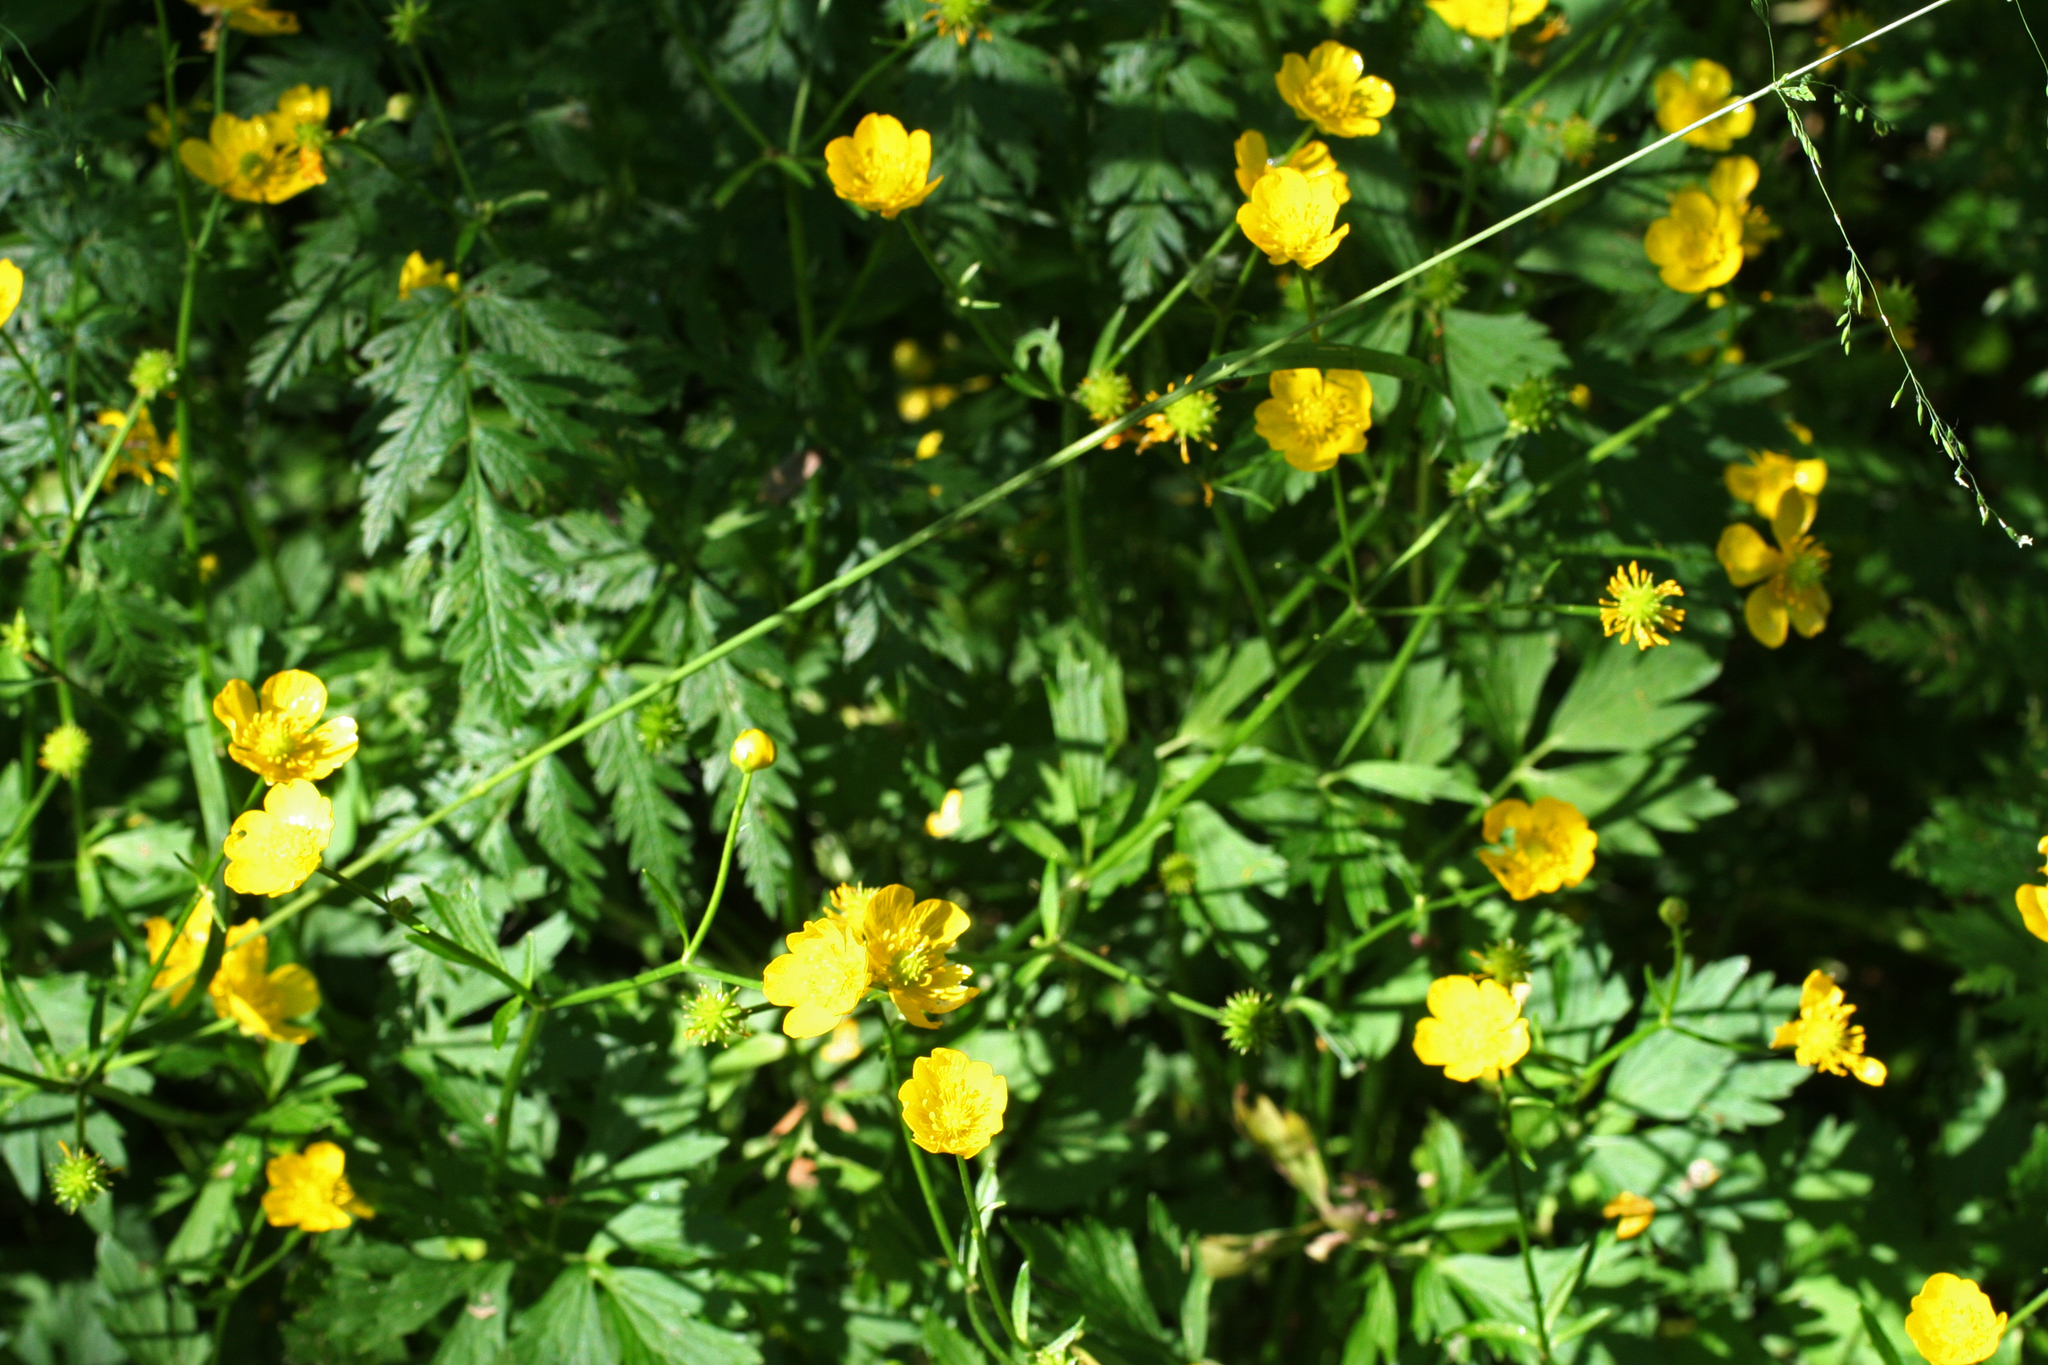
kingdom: Plantae
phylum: Tracheophyta
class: Magnoliopsida
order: Ranunculales
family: Ranunculaceae
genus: Ranunculus
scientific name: Ranunculus repens
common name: Creeping buttercup
